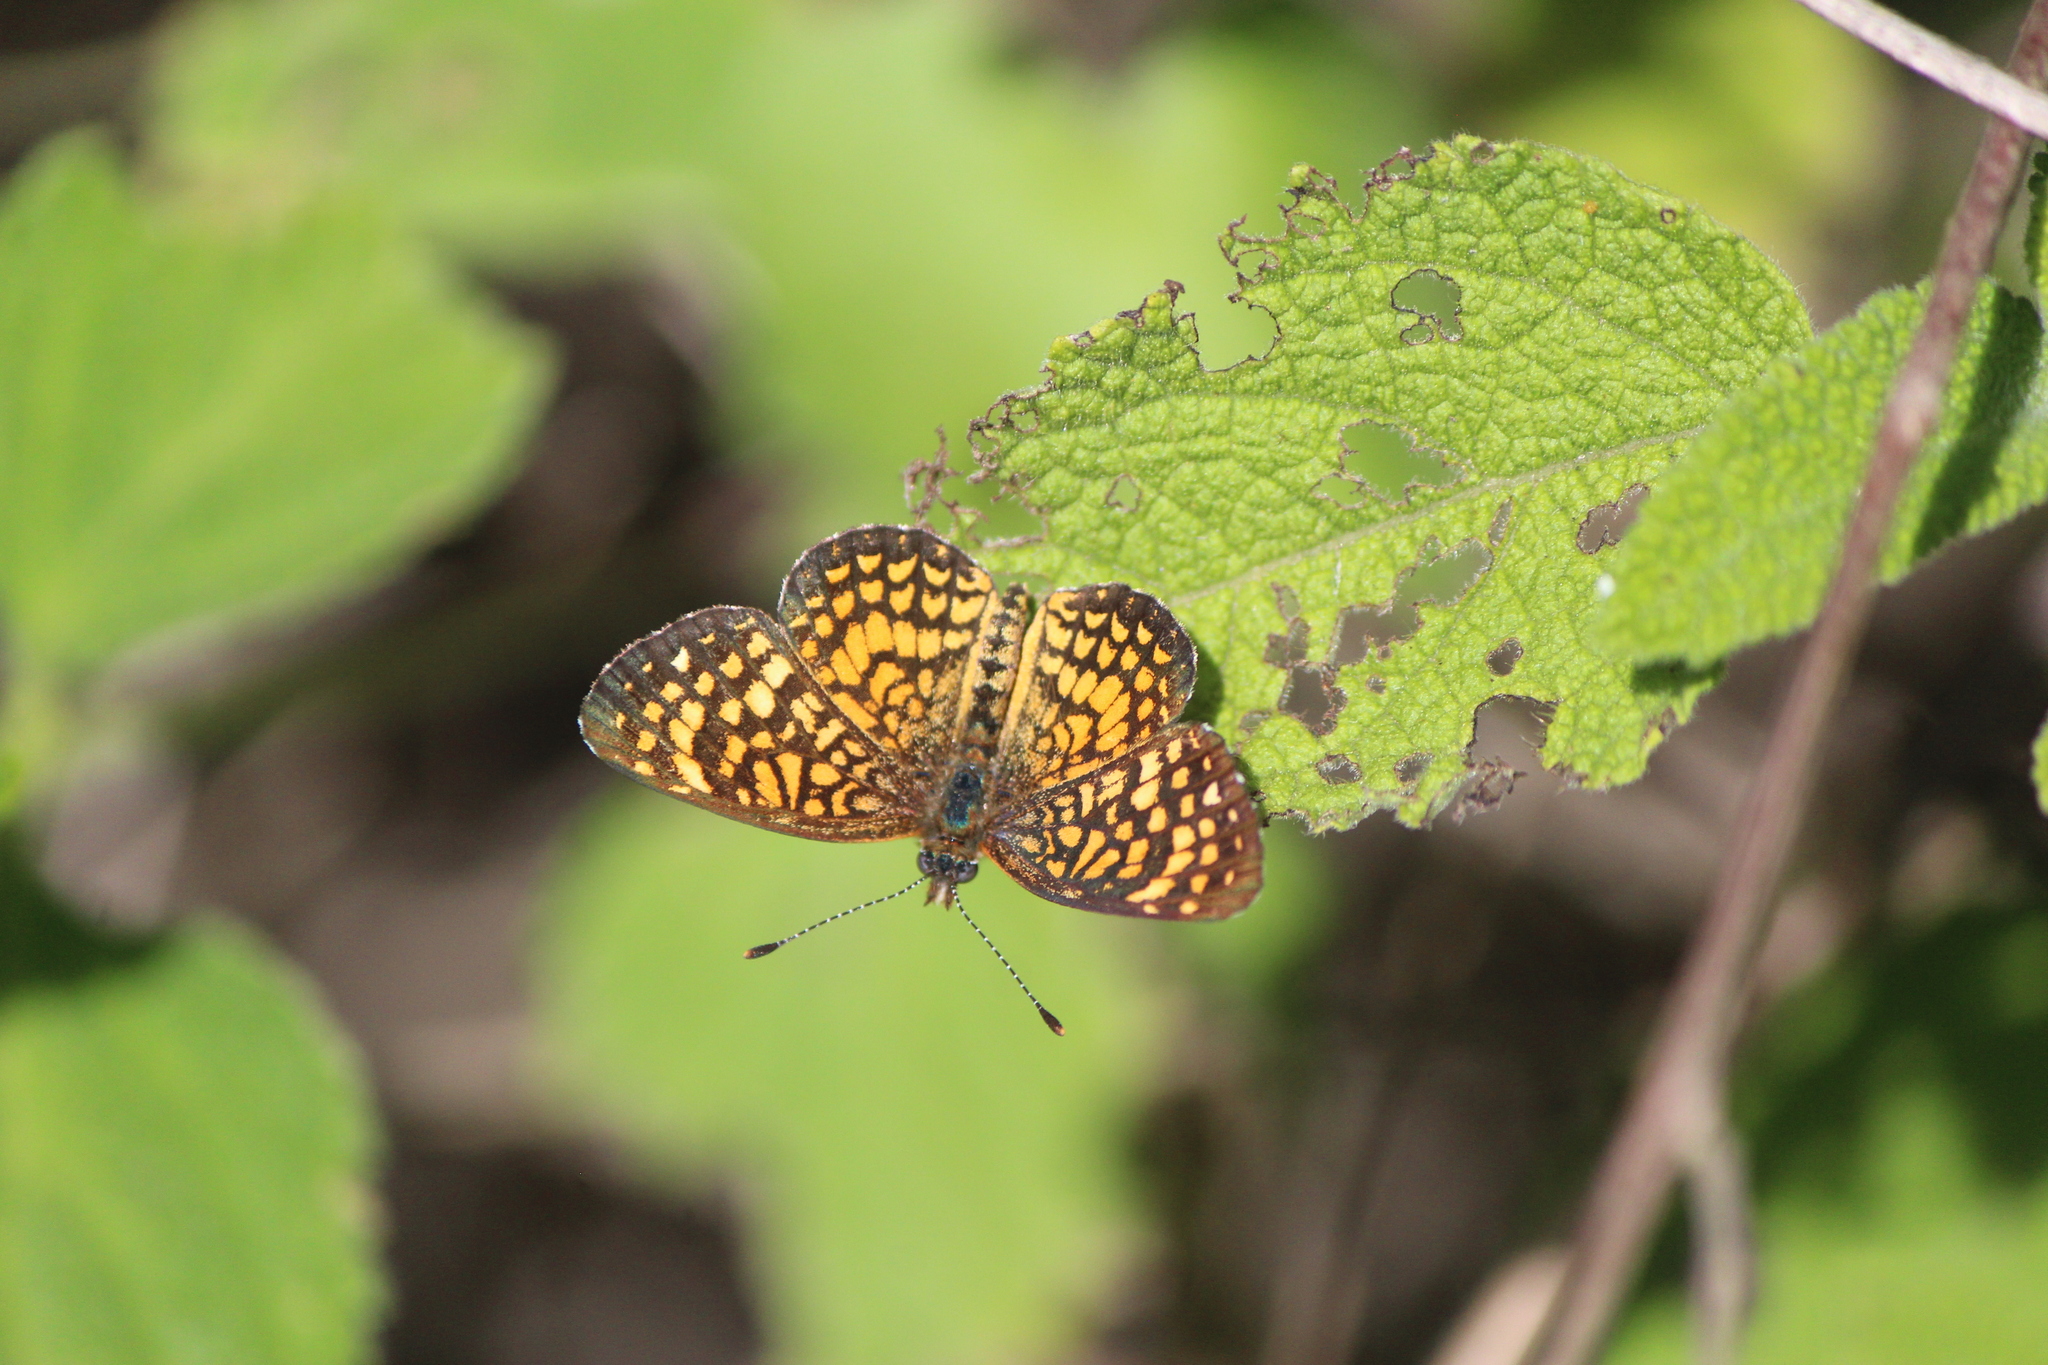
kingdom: Animalia
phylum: Arthropoda
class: Insecta
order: Lepidoptera
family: Nymphalidae
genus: Texola
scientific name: Texola elada
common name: Elada checkerspot
